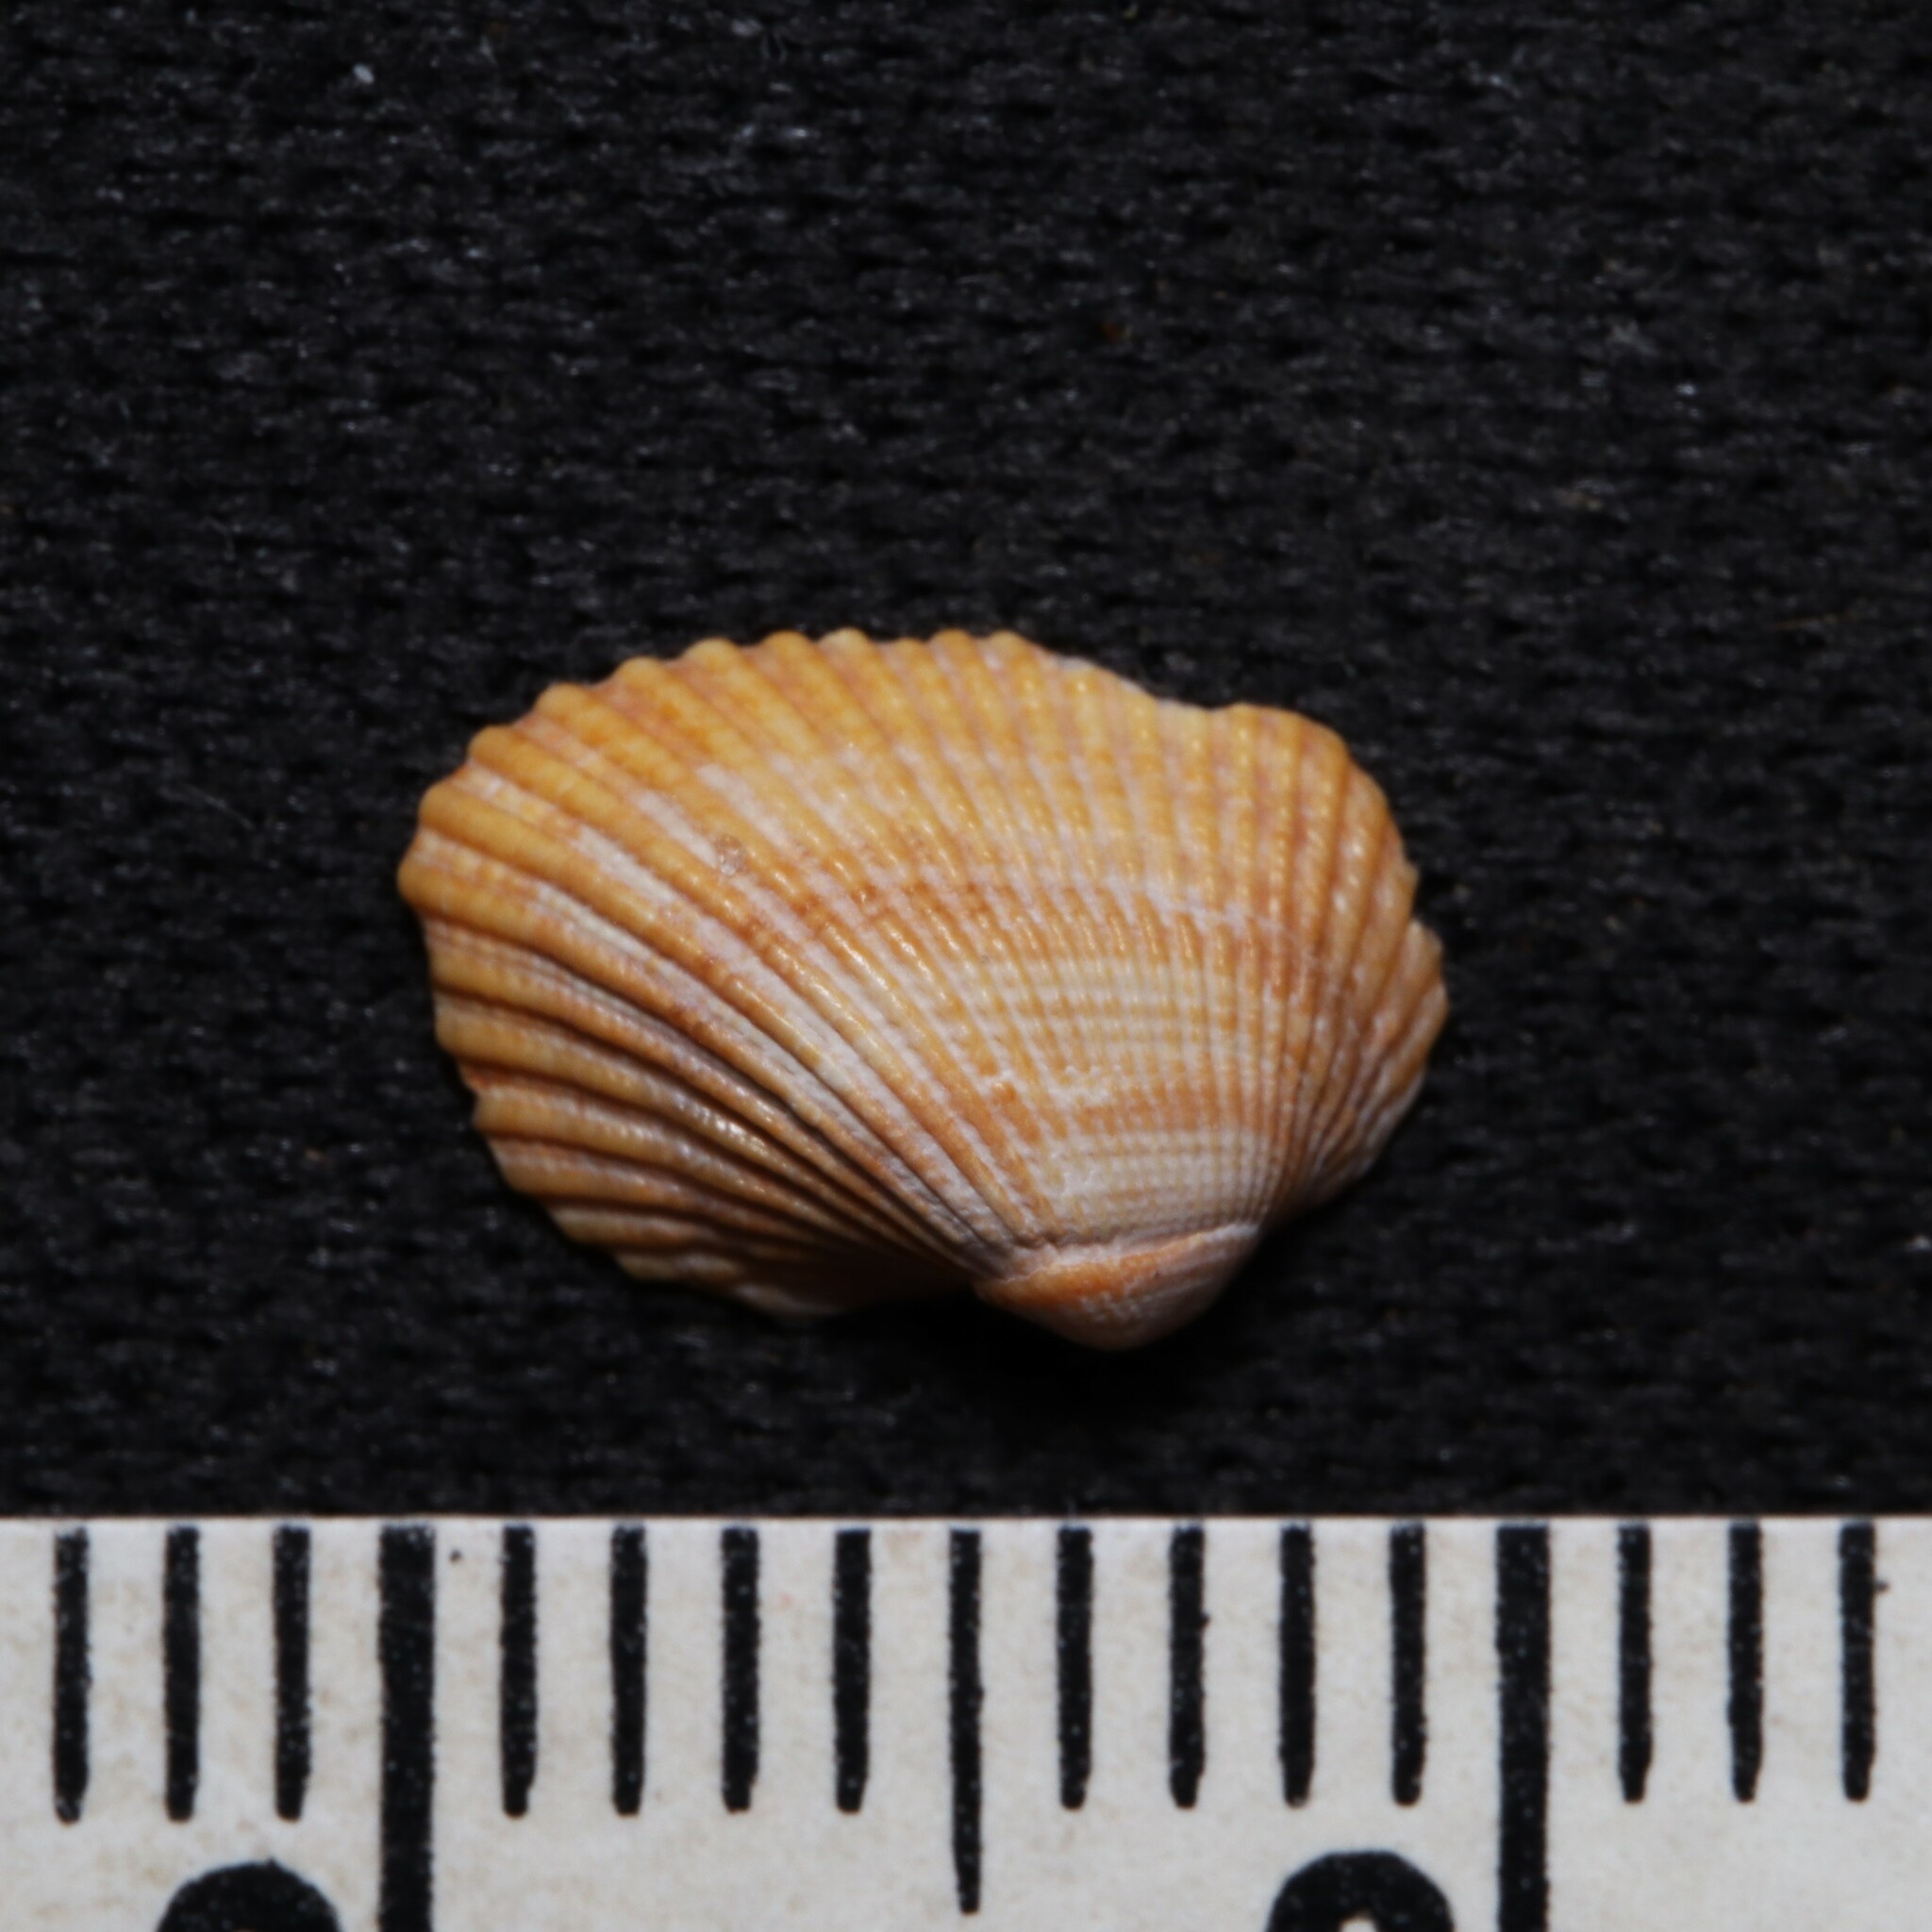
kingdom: Animalia
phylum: Mollusca
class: Bivalvia
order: Arcida
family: Arcidae
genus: Anadara
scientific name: Anadara transversa
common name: Transverse ark
